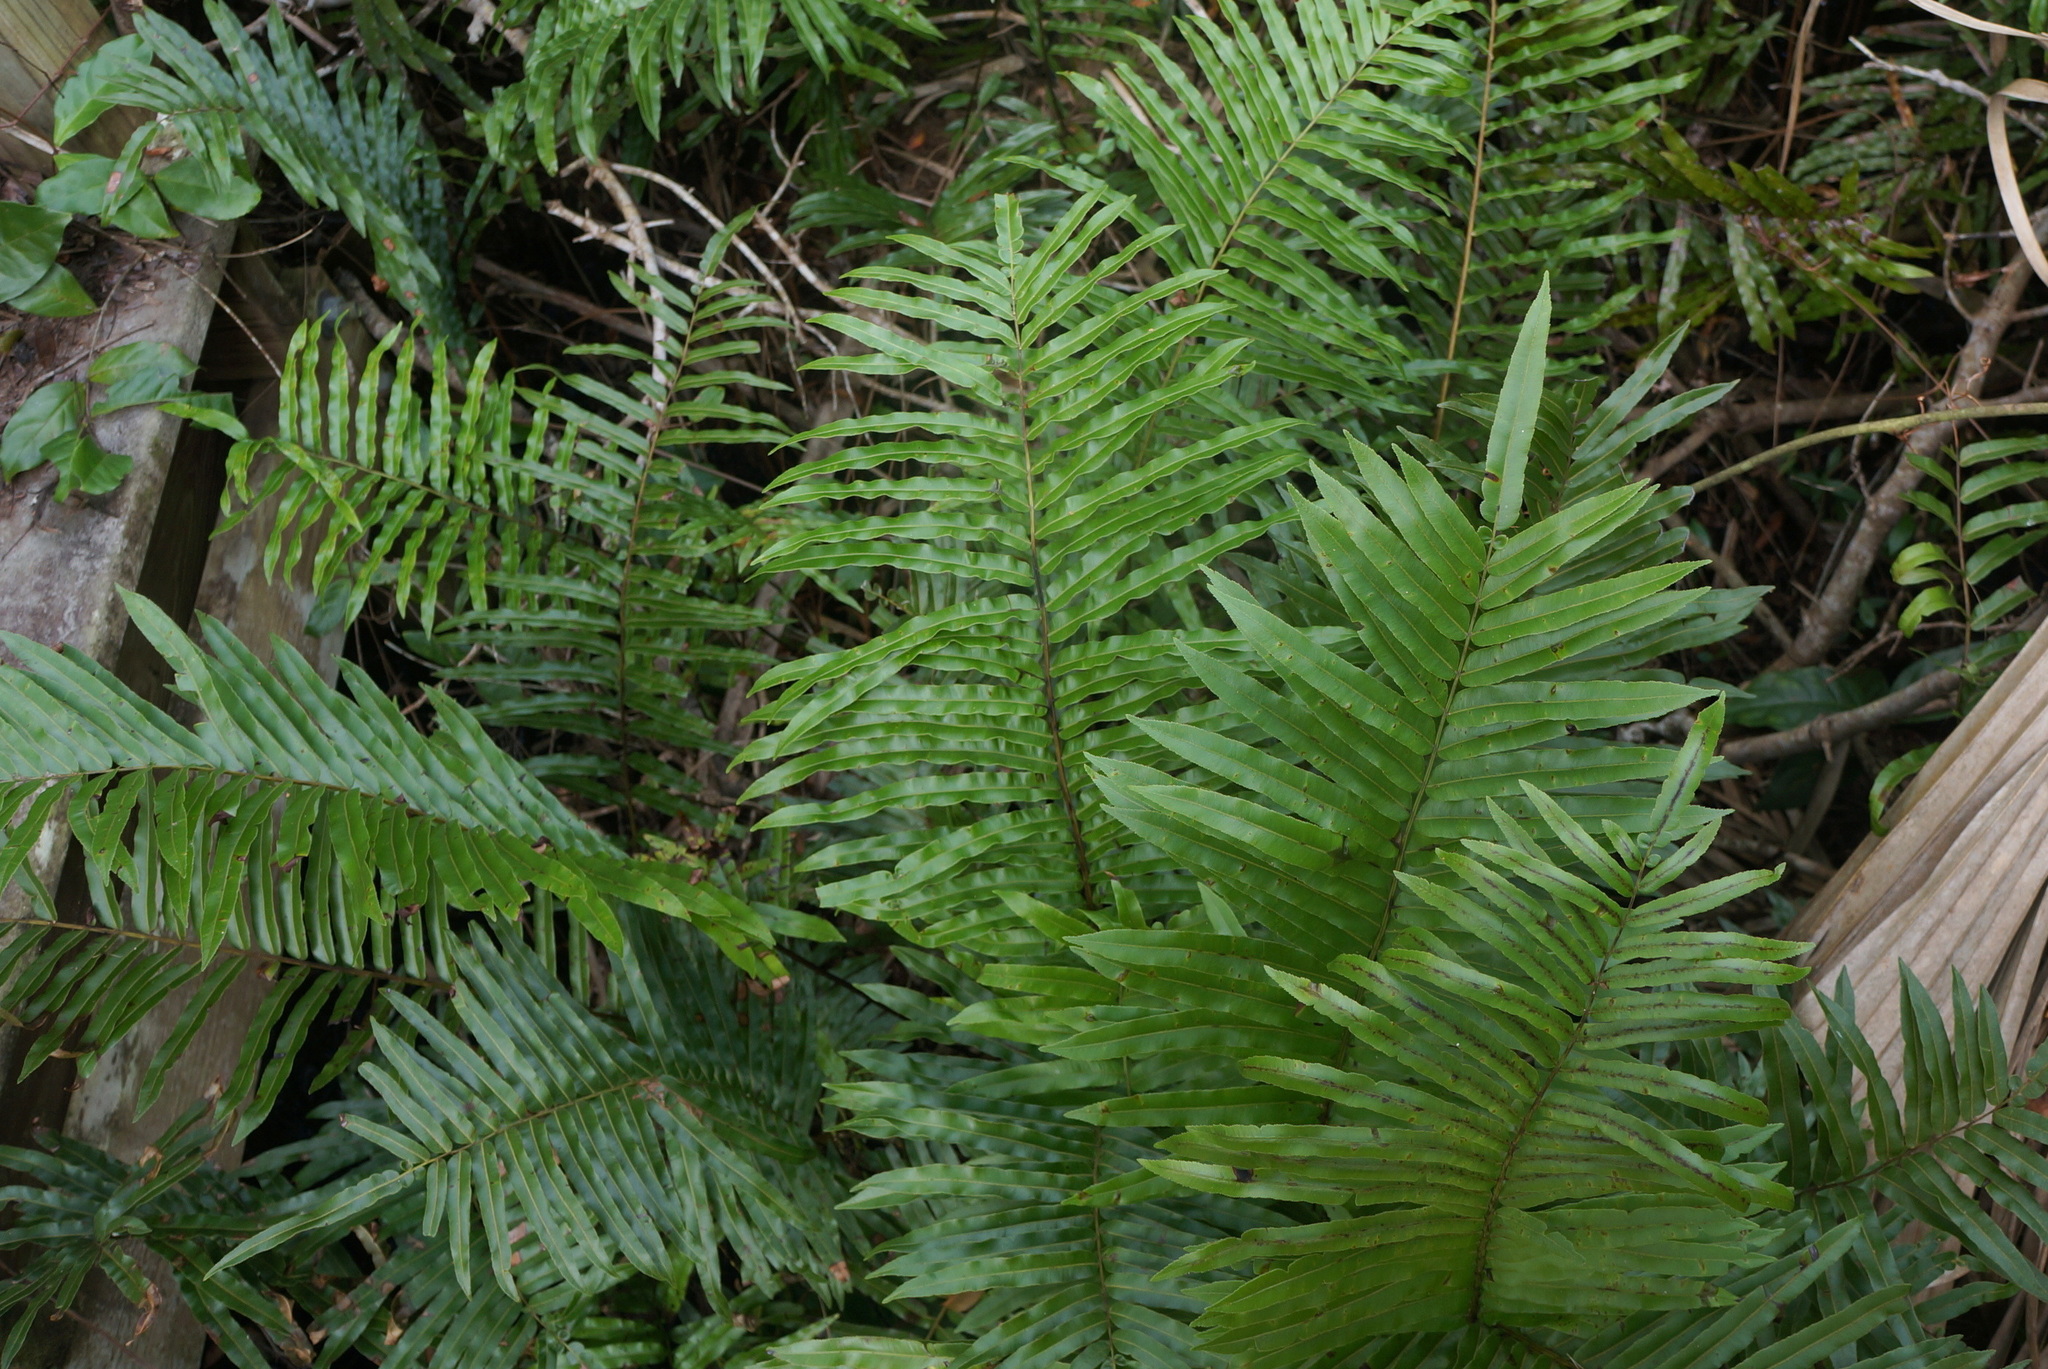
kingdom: Plantae
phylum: Tracheophyta
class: Polypodiopsida
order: Polypodiales
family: Blechnaceae
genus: Telmatoblechnum
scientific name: Telmatoblechnum serrulatum
